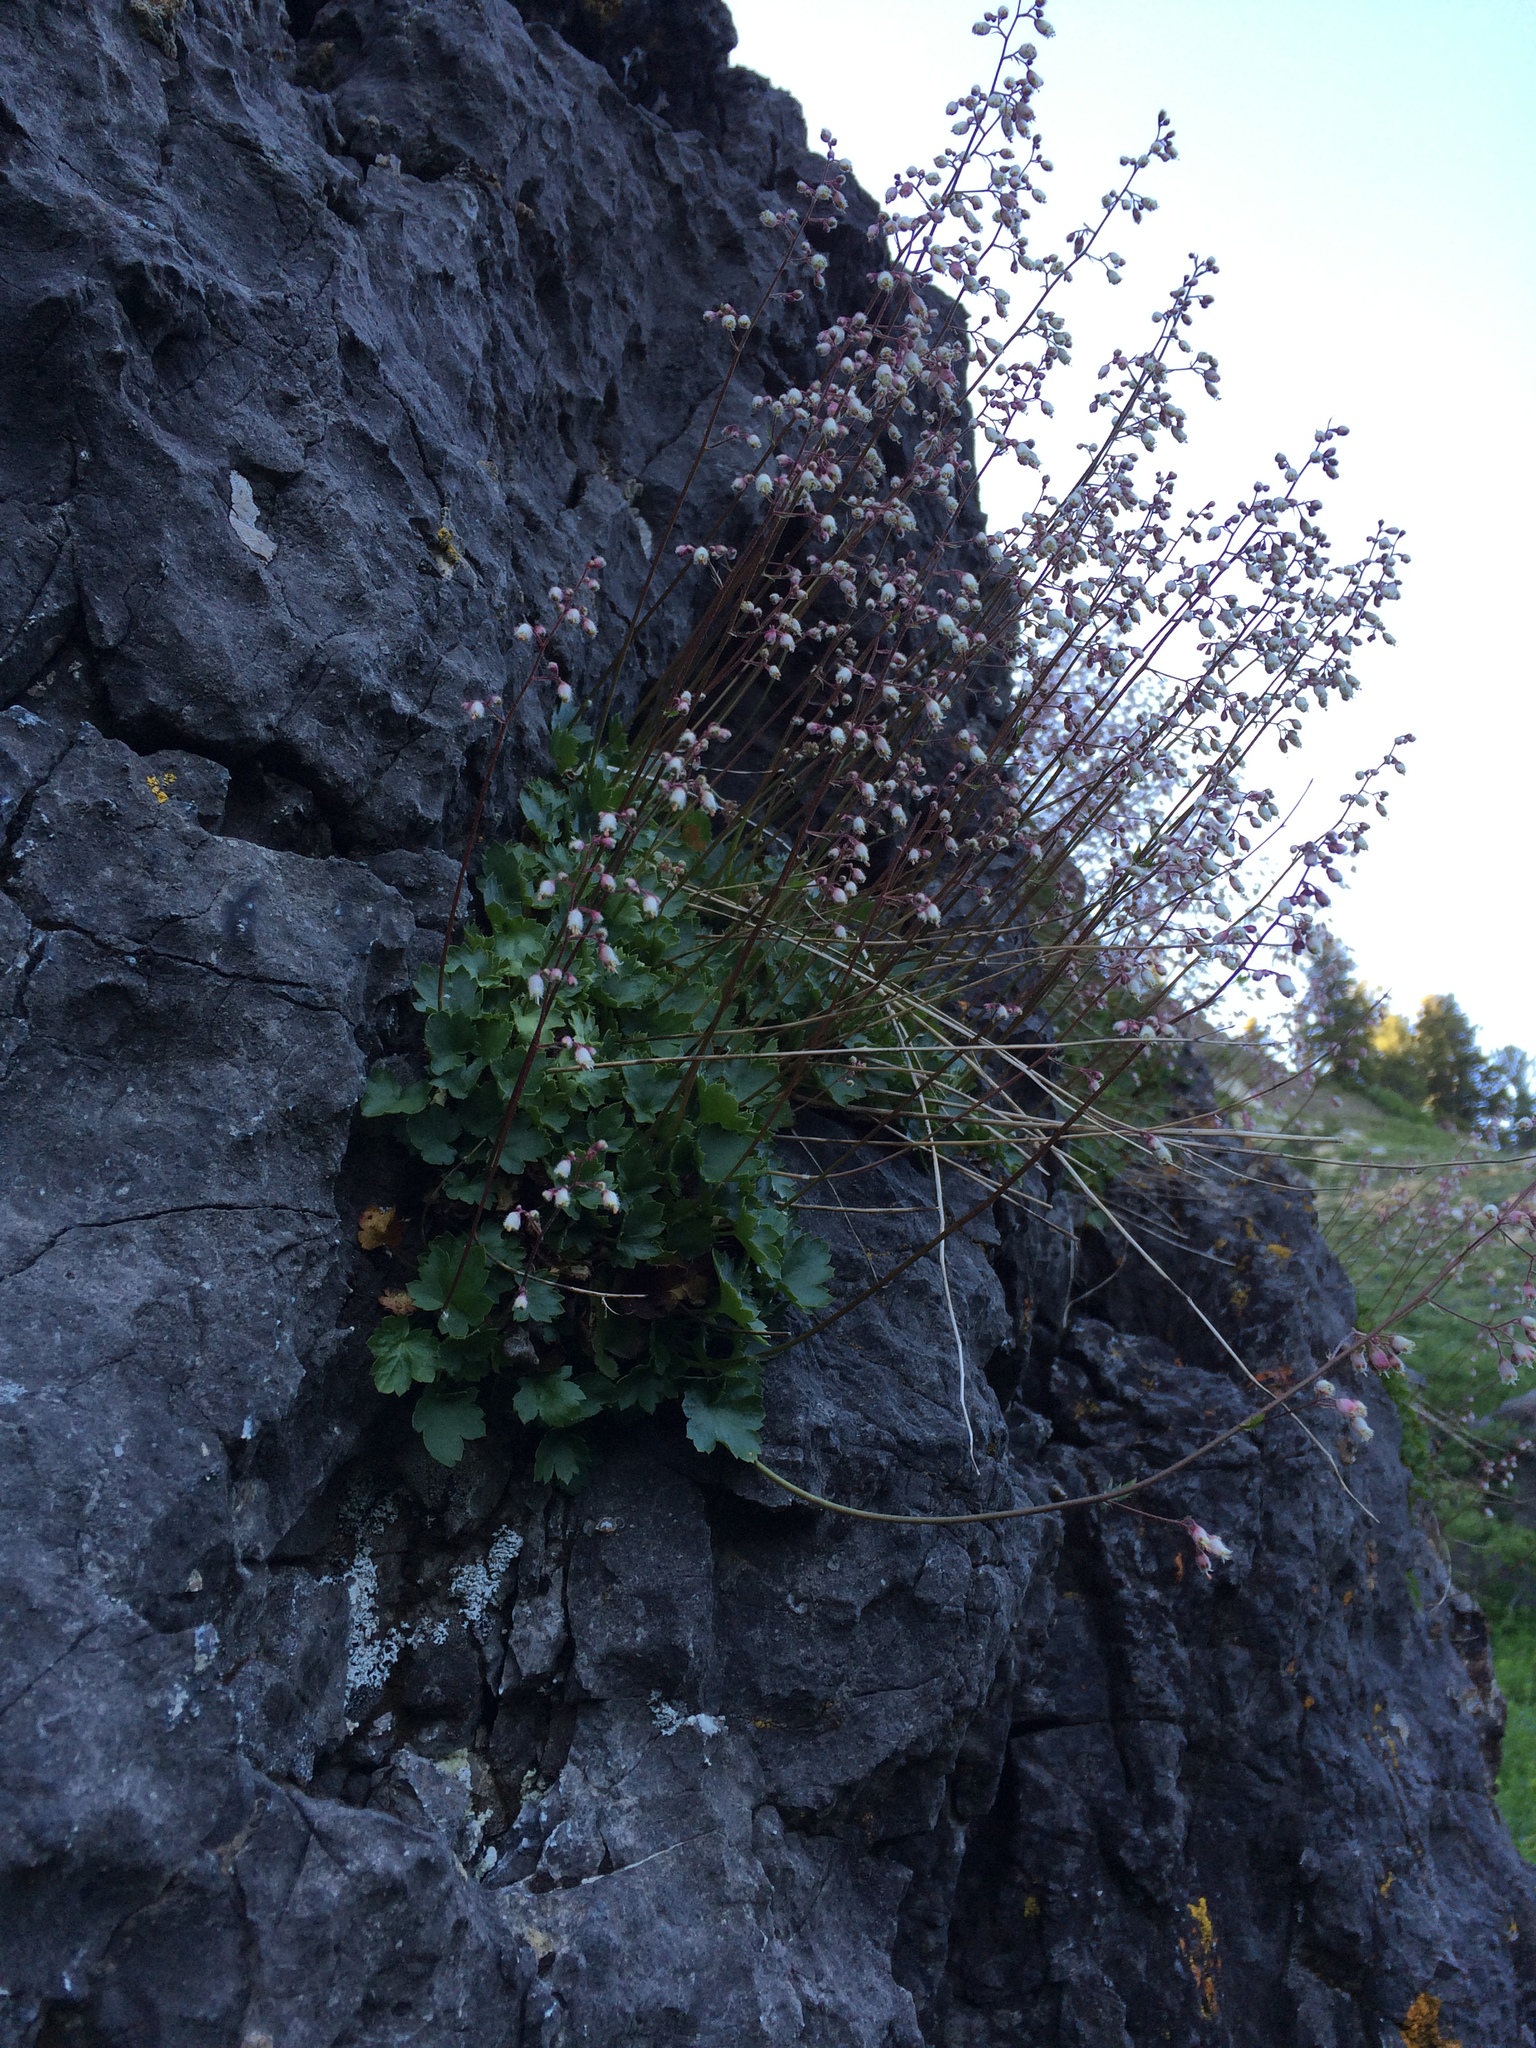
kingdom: Plantae
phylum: Tracheophyta
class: Magnoliopsida
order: Saxifragales
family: Saxifragaceae
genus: Heuchera
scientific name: Heuchera rubescens
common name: Jack-o'the-rocks
